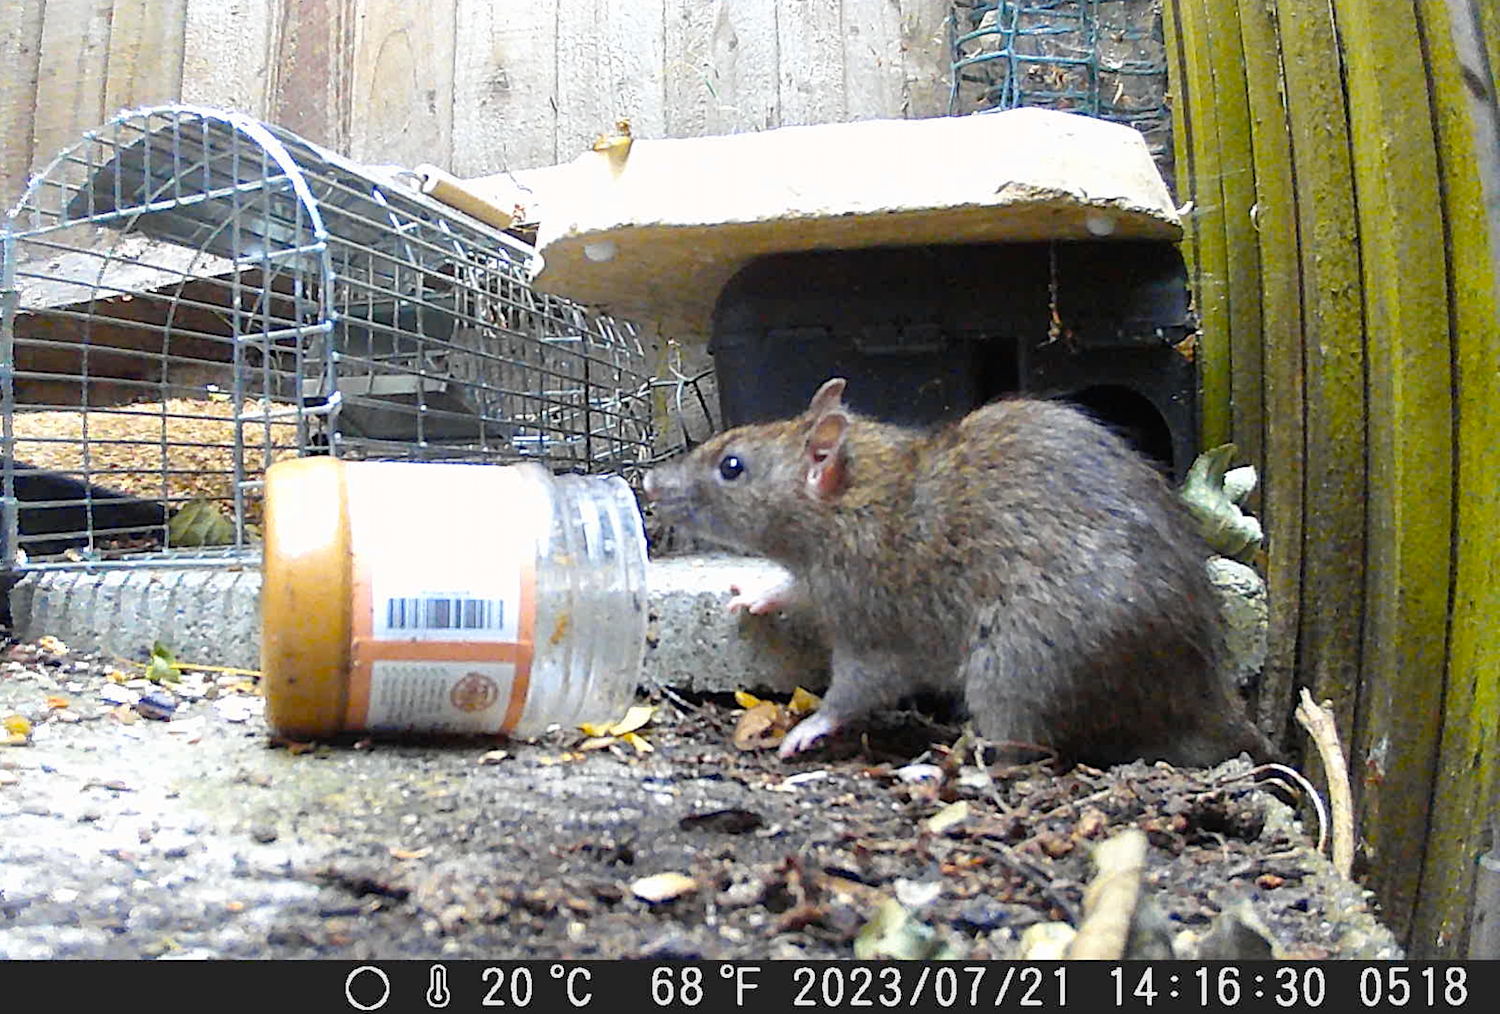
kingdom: Animalia
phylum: Chordata
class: Mammalia
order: Rodentia
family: Muridae
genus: Rattus
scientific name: Rattus norvegicus
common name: Brown rat
